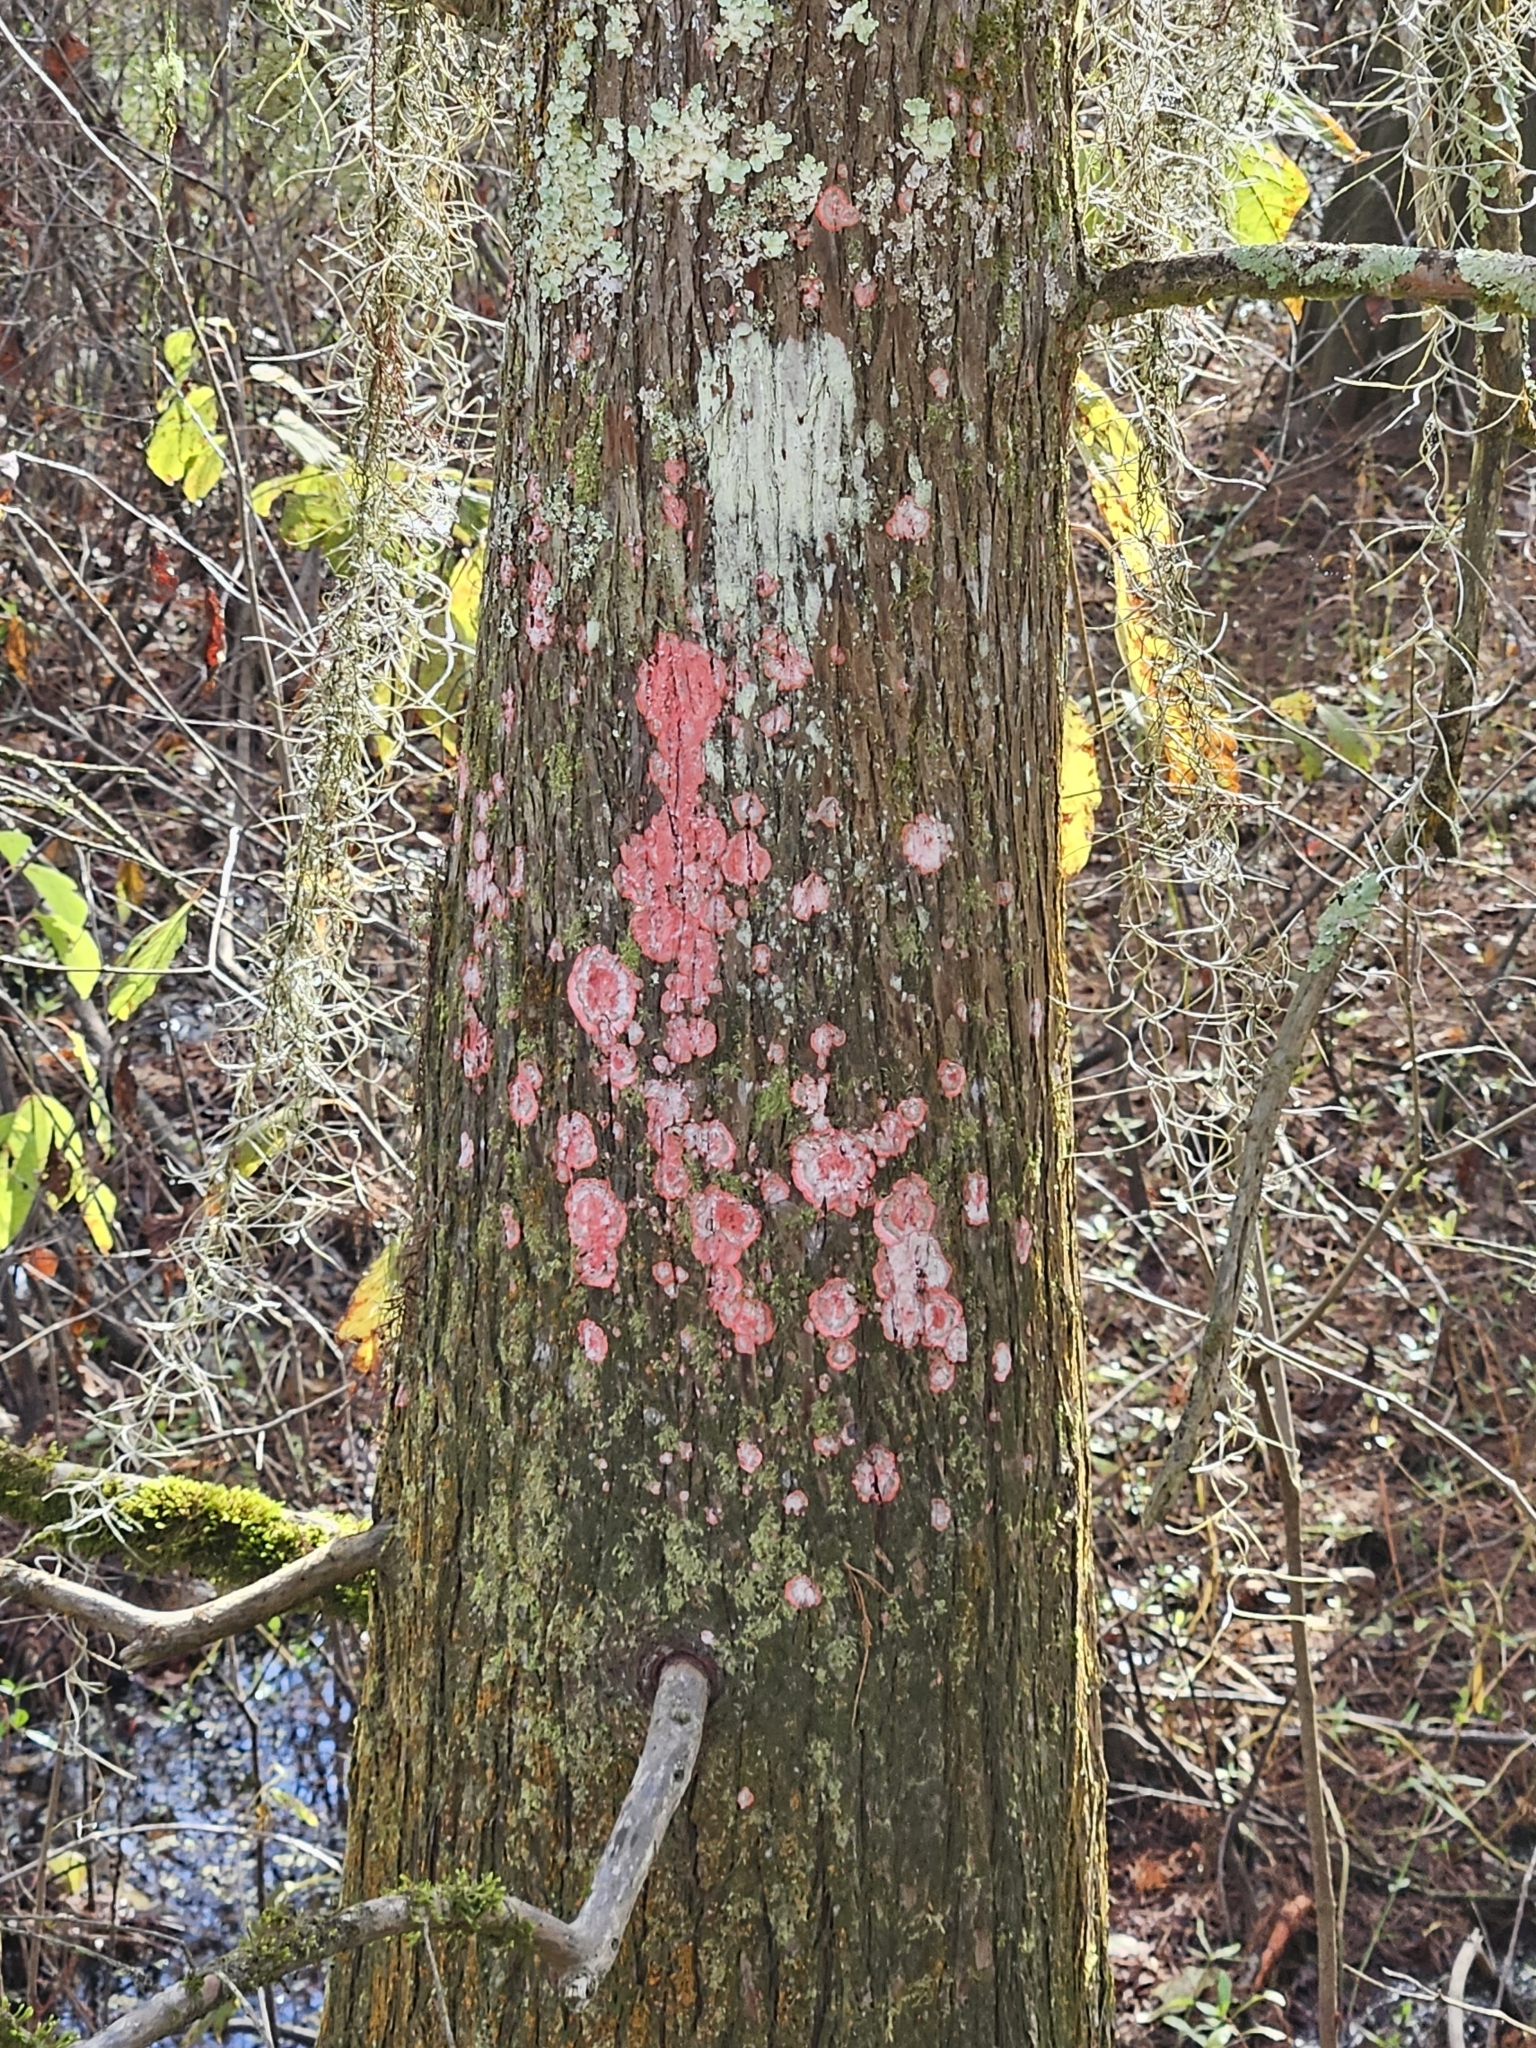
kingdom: Fungi
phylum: Ascomycota
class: Arthoniomycetes
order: Arthoniales
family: Arthoniaceae
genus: Herpothallon
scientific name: Herpothallon rubrocinctum
